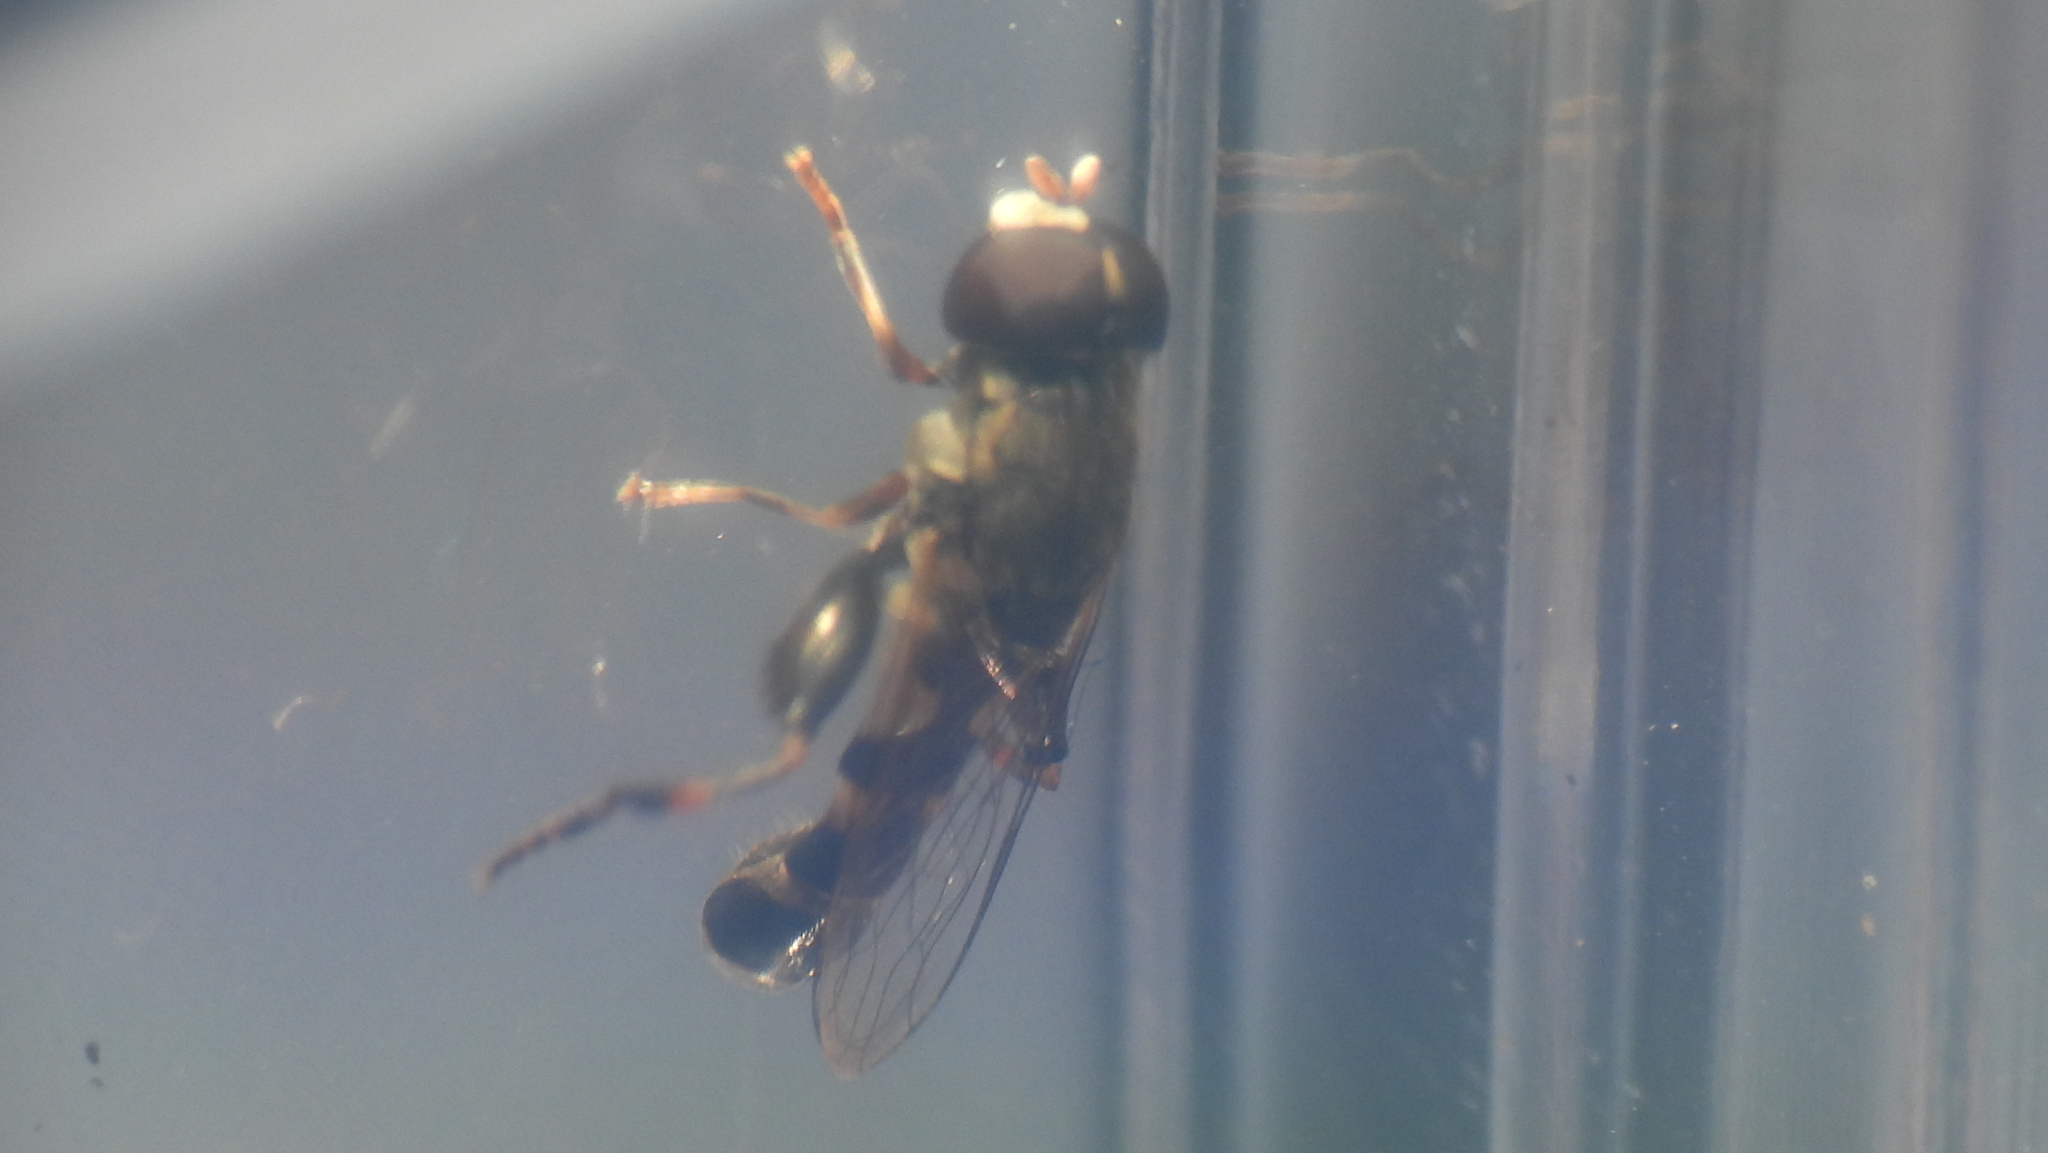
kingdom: Animalia
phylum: Arthropoda
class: Insecta
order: Diptera
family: Syrphidae
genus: Syritta
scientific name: Syritta pipiens
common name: Hover fly
